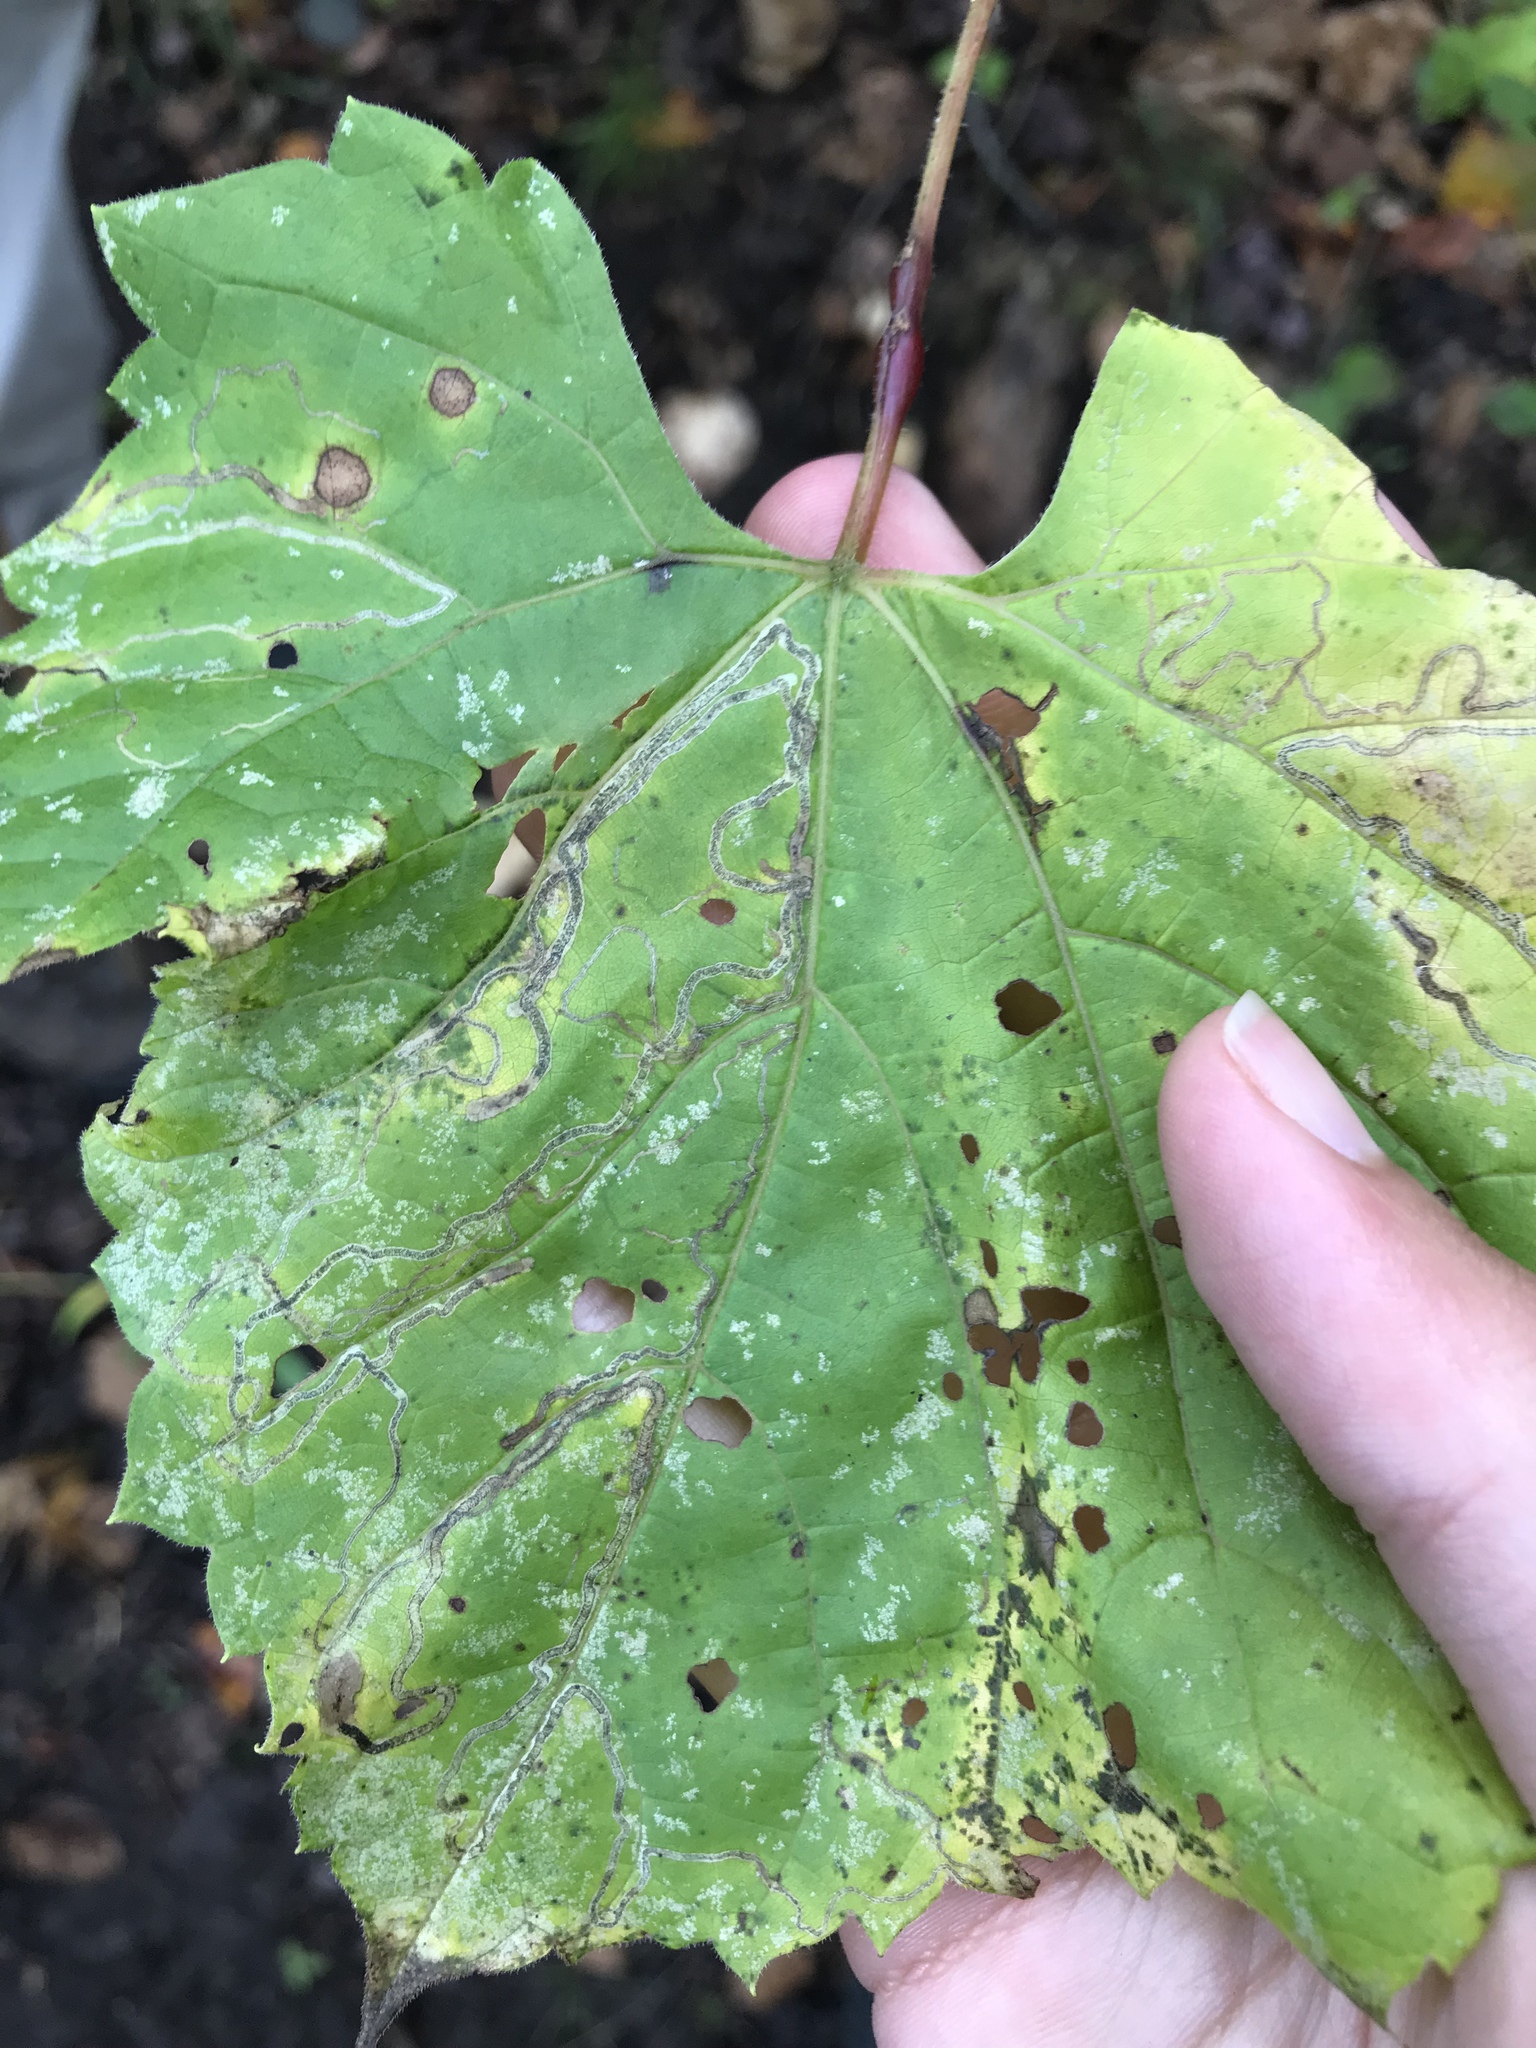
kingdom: Animalia
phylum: Arthropoda
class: Insecta
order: Lepidoptera
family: Gracillariidae
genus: Phyllocnistis
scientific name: Phyllocnistis vitifoliella
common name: Grape leaf-miner moth
